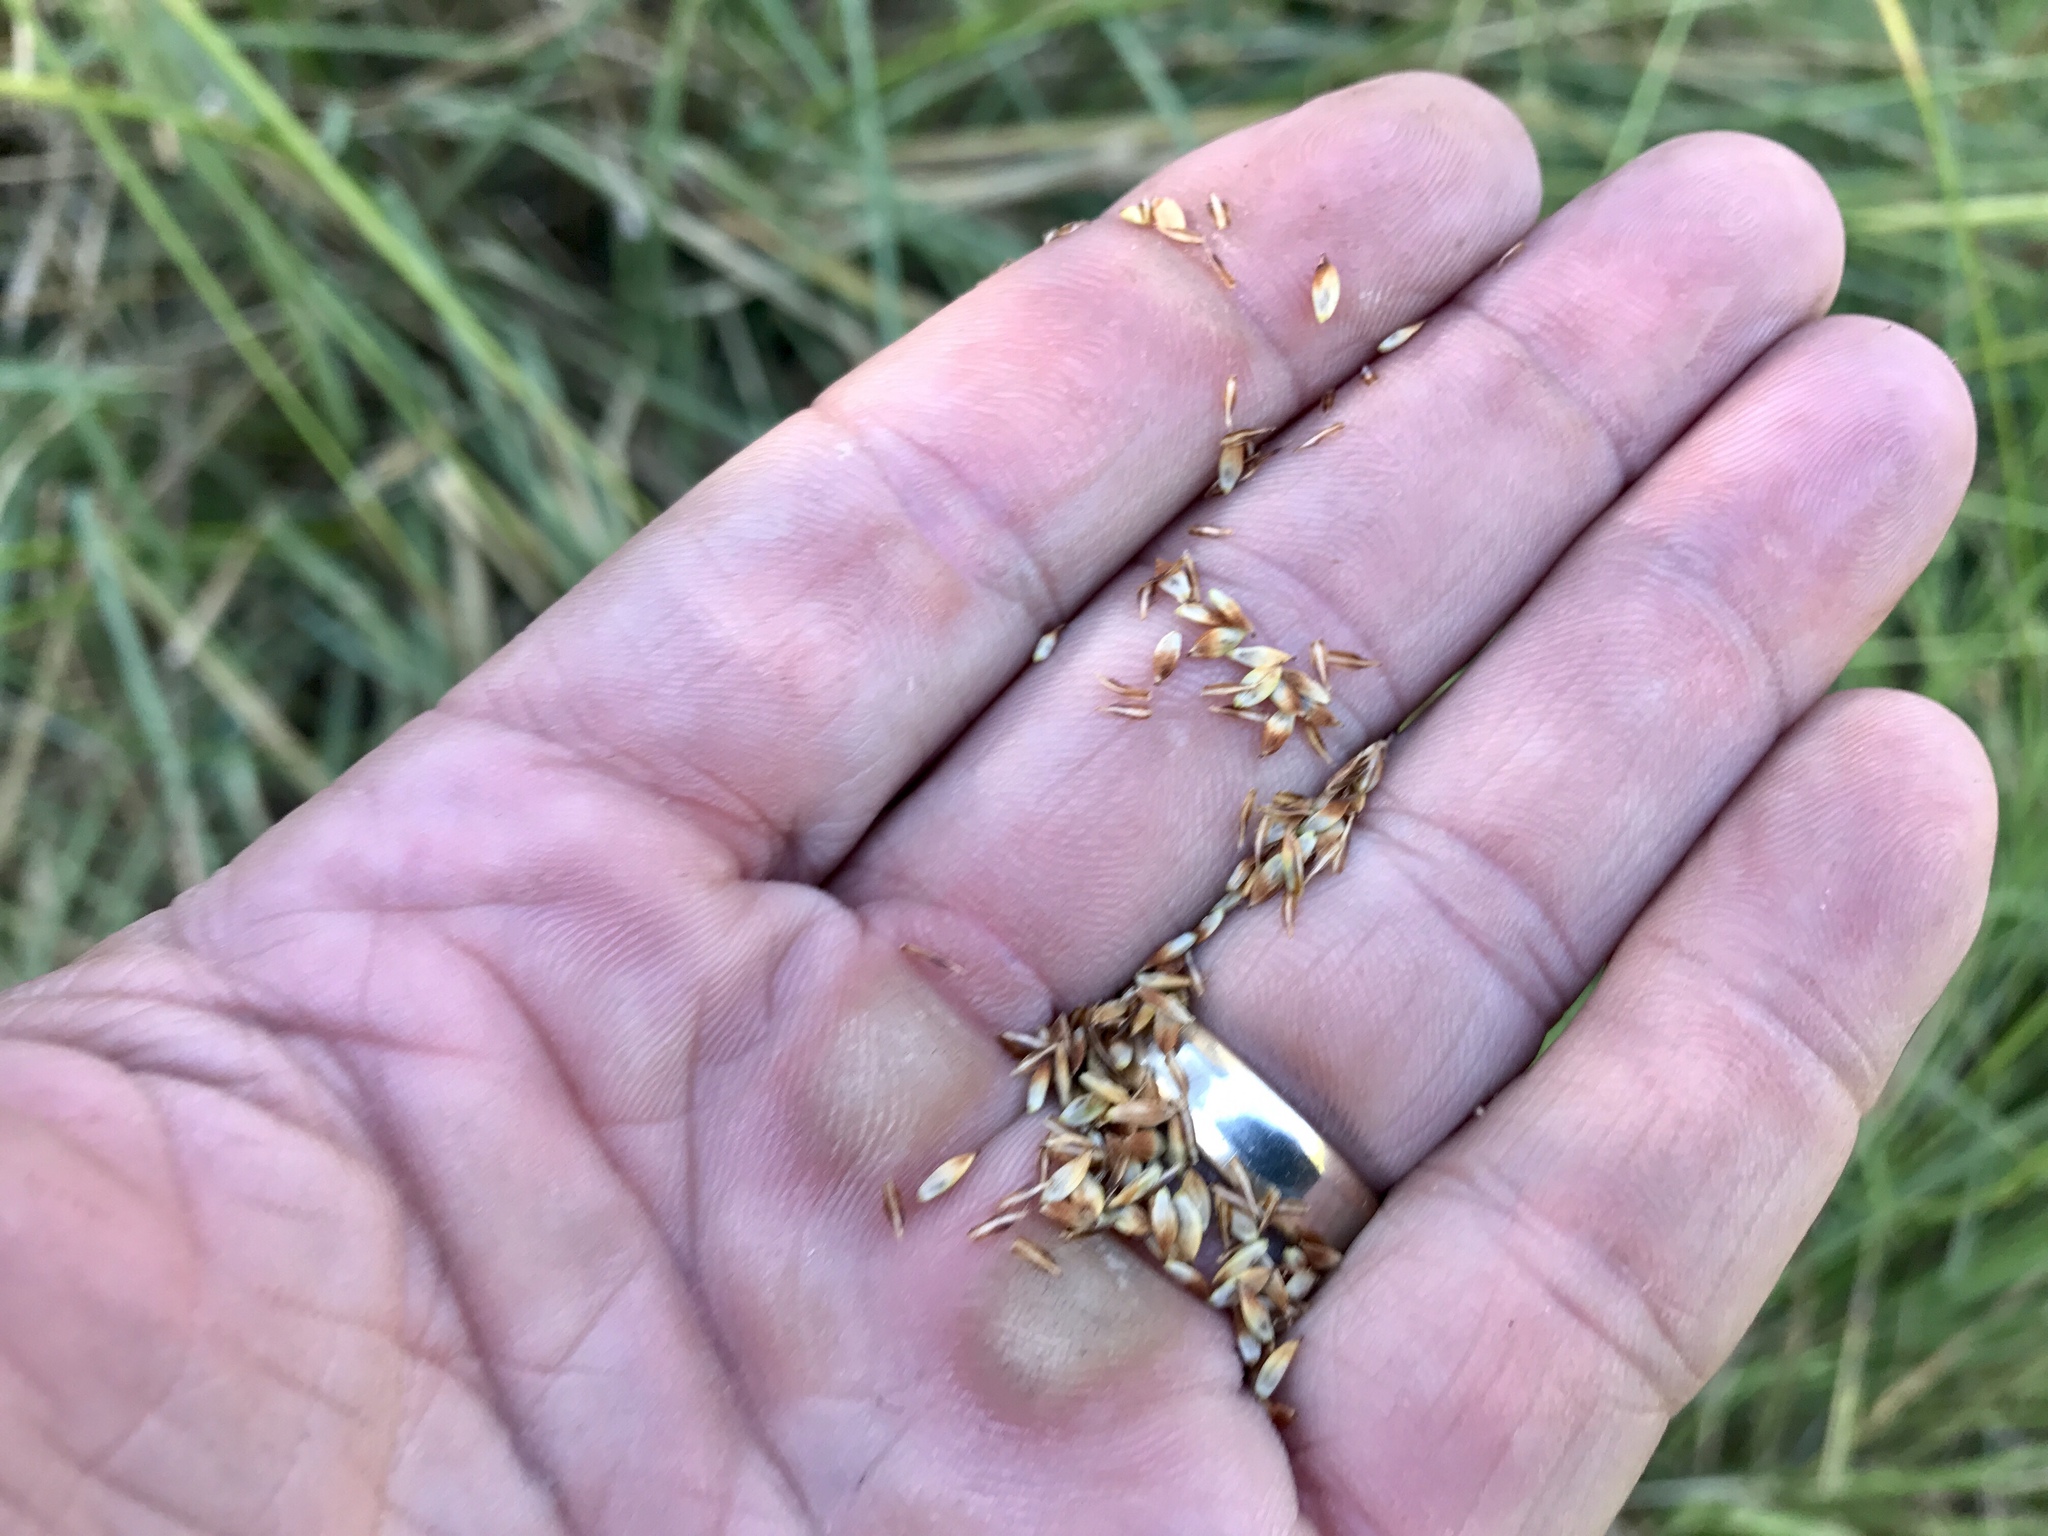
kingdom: Plantae
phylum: Tracheophyta
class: Liliopsida
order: Poales
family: Cyperaceae
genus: Carex
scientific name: Carex ultra
